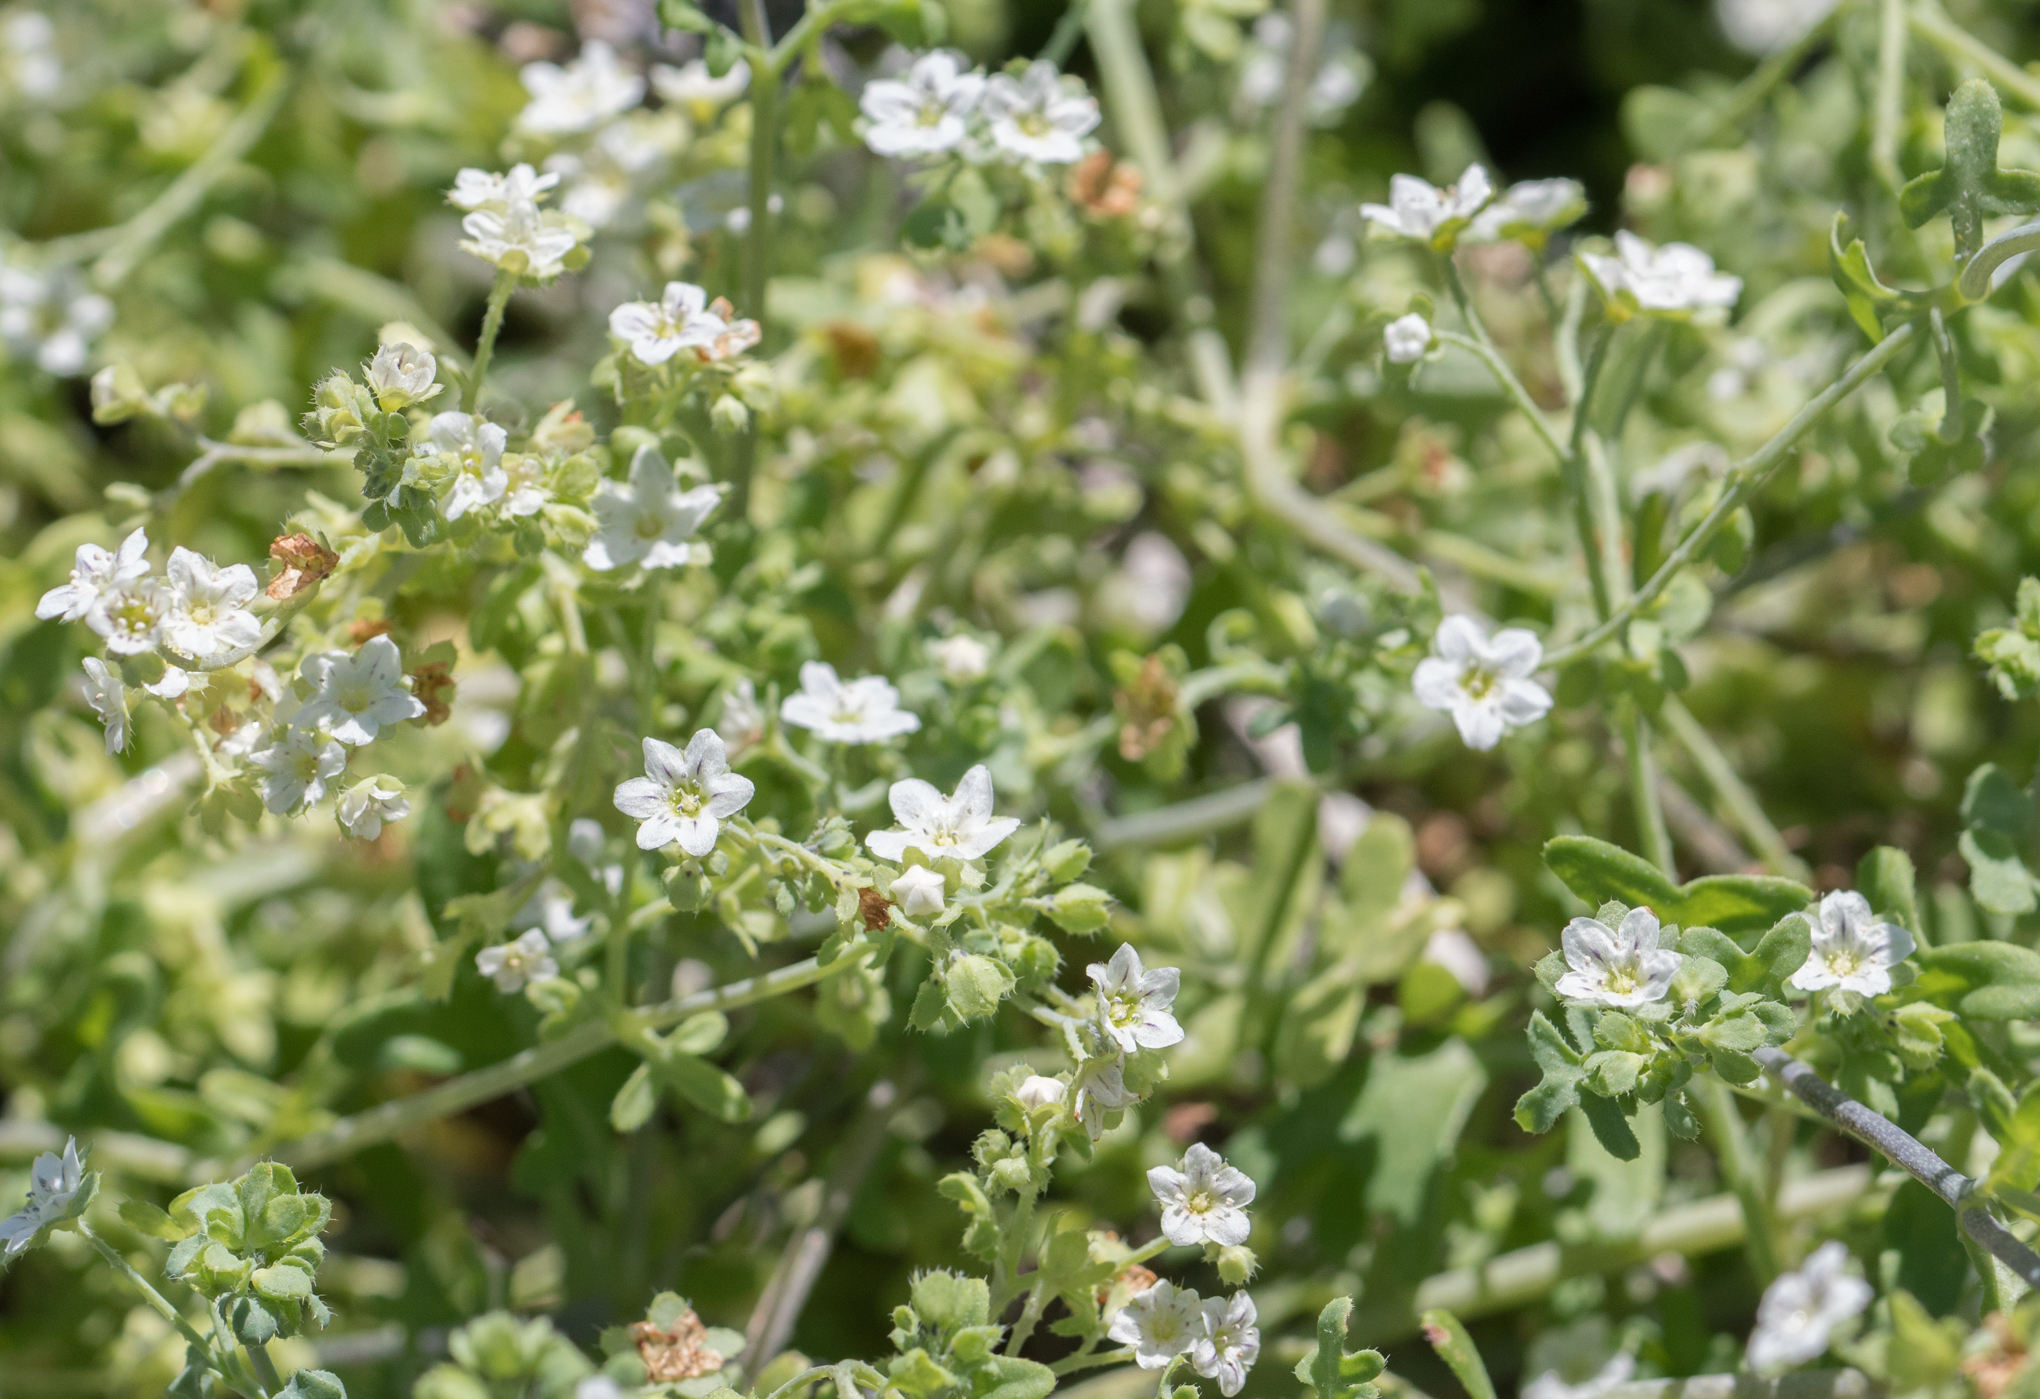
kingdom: Plantae
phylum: Tracheophyta
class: Magnoliopsida
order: Boraginales
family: Hydrophyllaceae
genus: Pholistoma
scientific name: Pholistoma membranaceum
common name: White fiesta-flower
